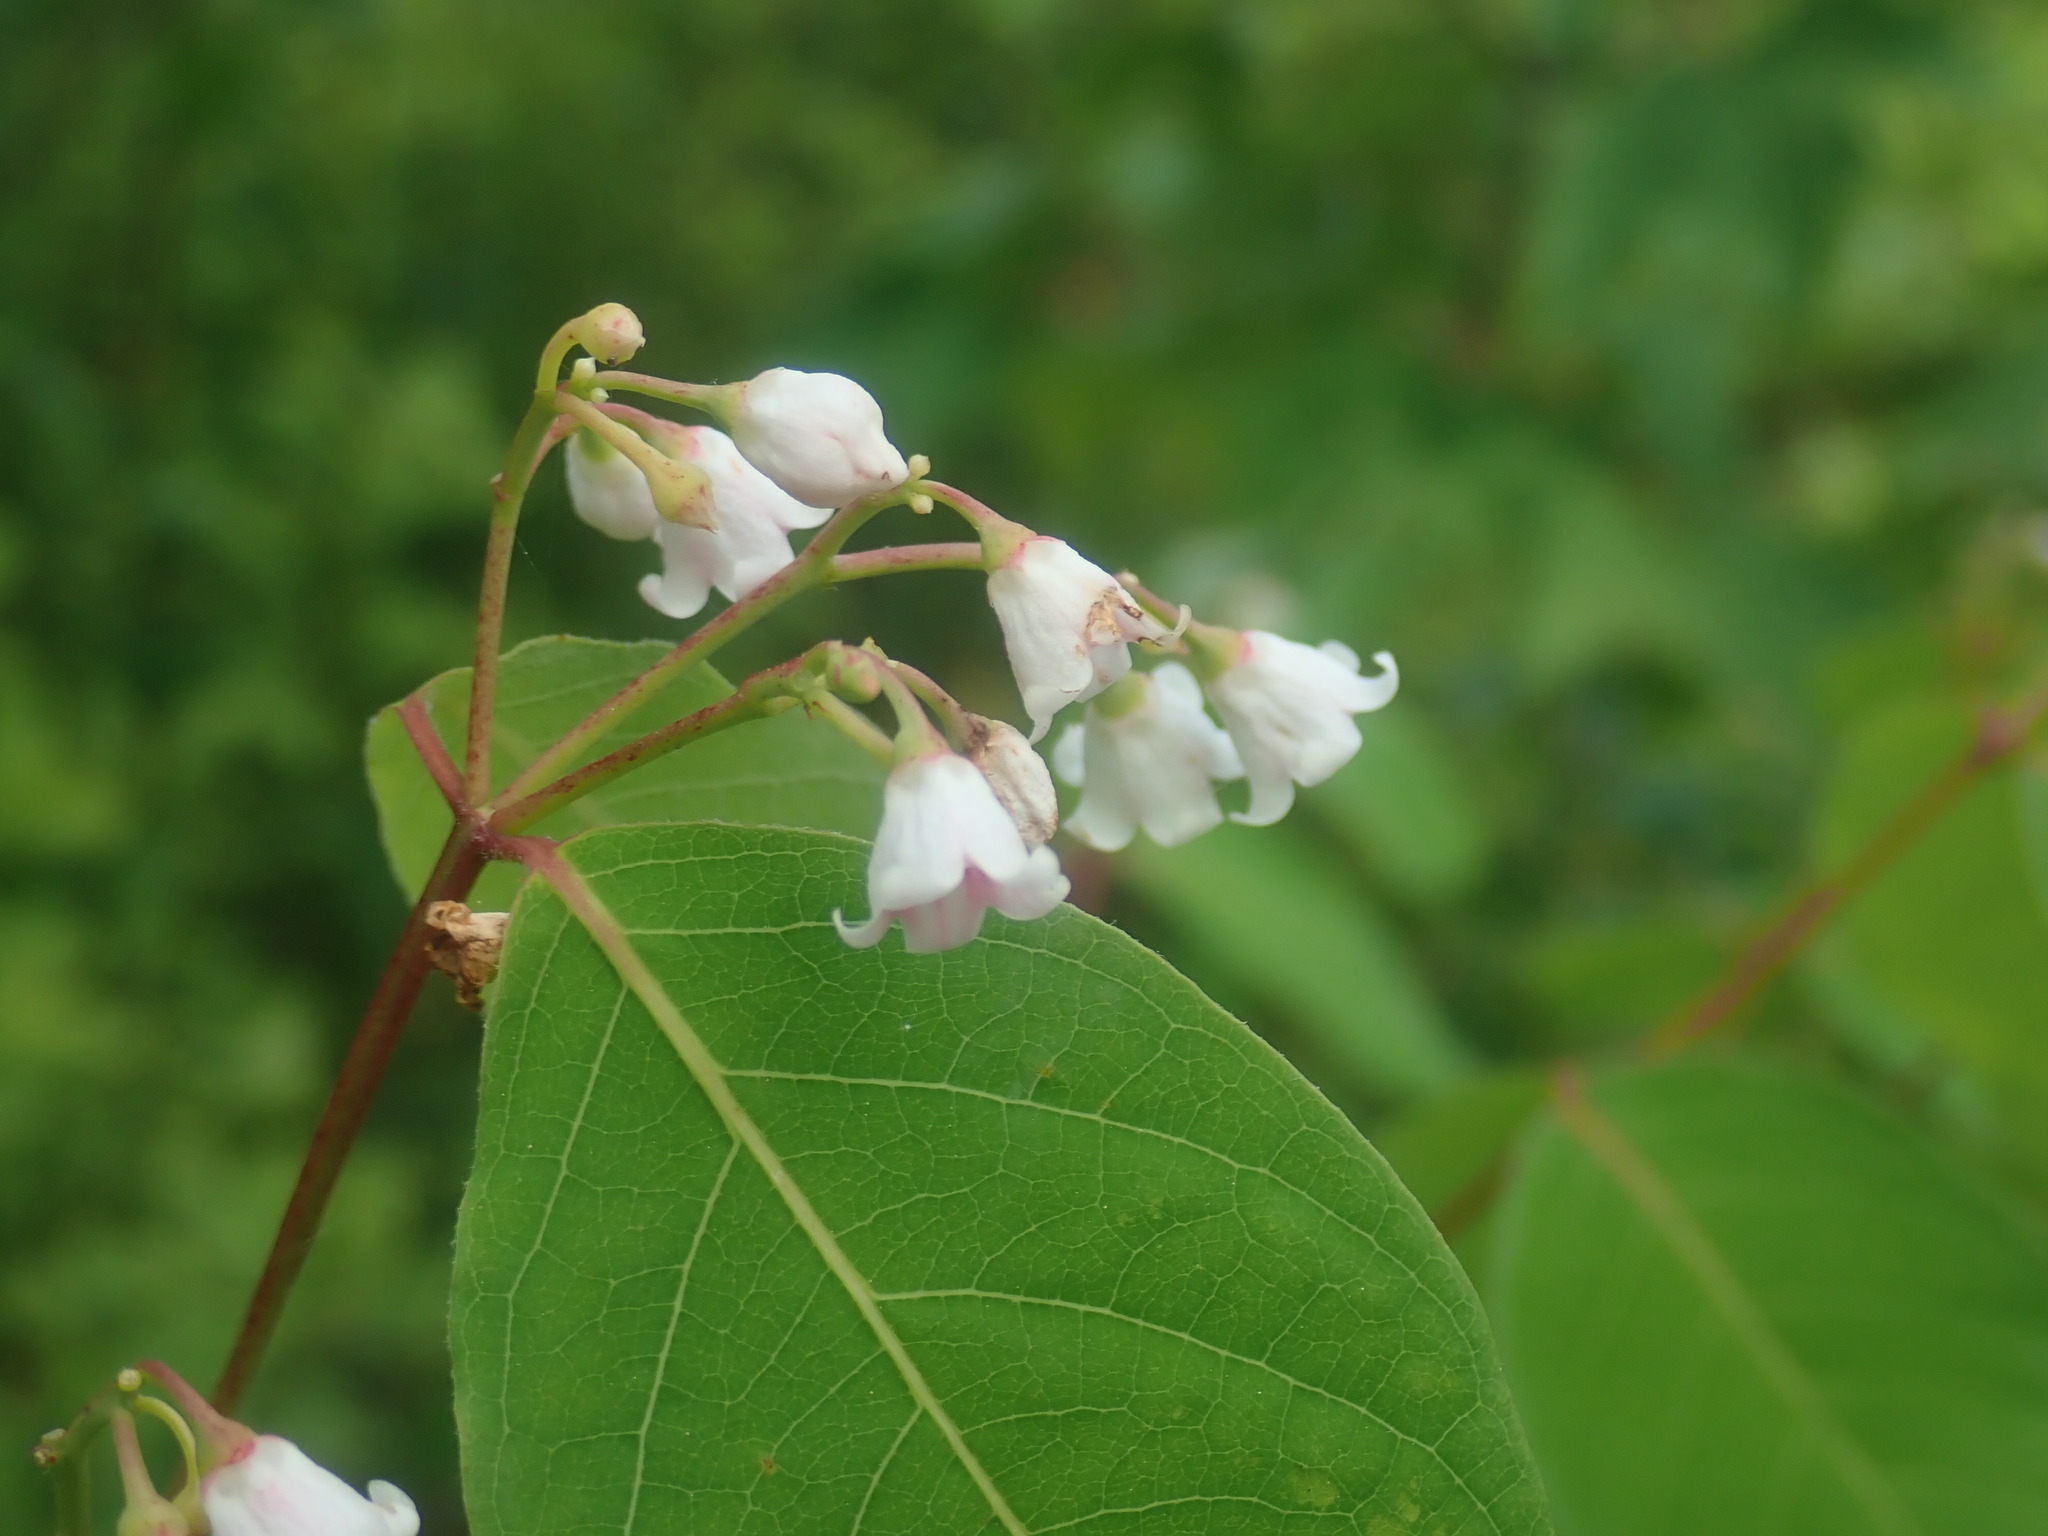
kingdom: Plantae
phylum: Tracheophyta
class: Magnoliopsida
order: Gentianales
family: Apocynaceae
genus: Apocynum
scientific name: Apocynum androsaemifolium
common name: Spreading dogbane
